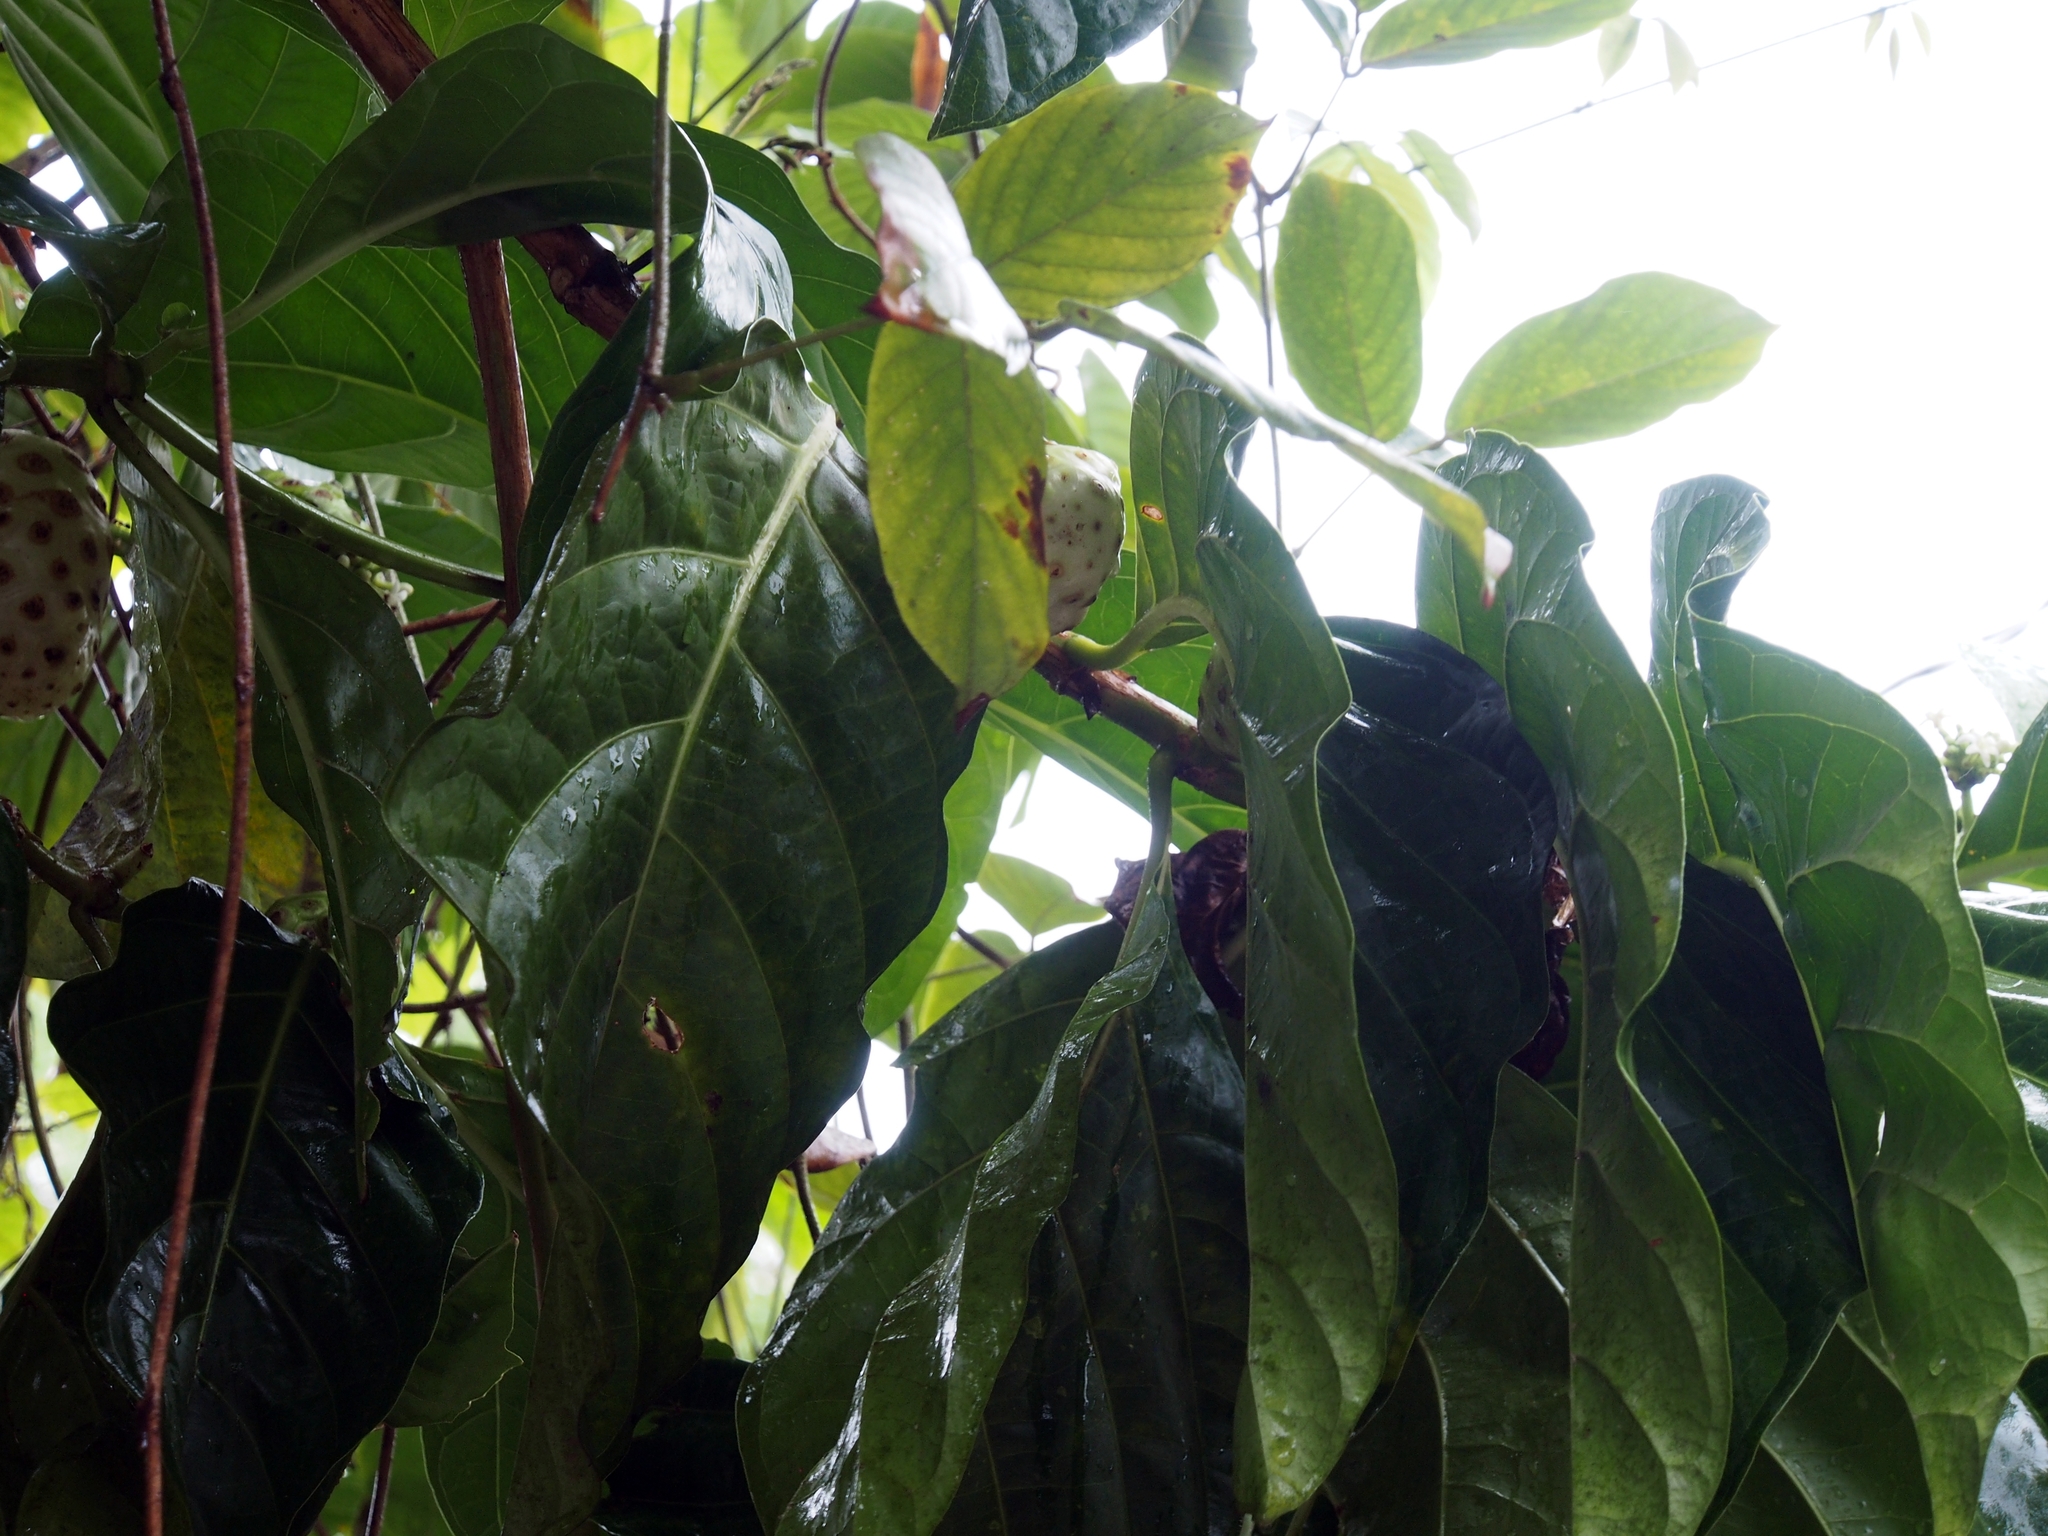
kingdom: Plantae
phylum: Tracheophyta
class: Magnoliopsida
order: Gentianales
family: Rubiaceae
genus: Morinda
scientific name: Morinda citrifolia
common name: Indian-mulberry
